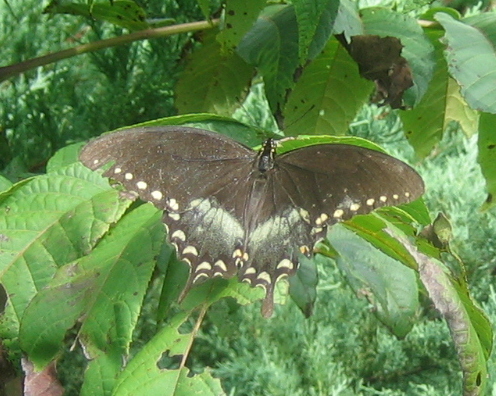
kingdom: Animalia
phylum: Arthropoda
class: Insecta
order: Lepidoptera
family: Papilionidae
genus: Papilio
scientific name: Papilio troilus
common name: Spicebush swallowtail
